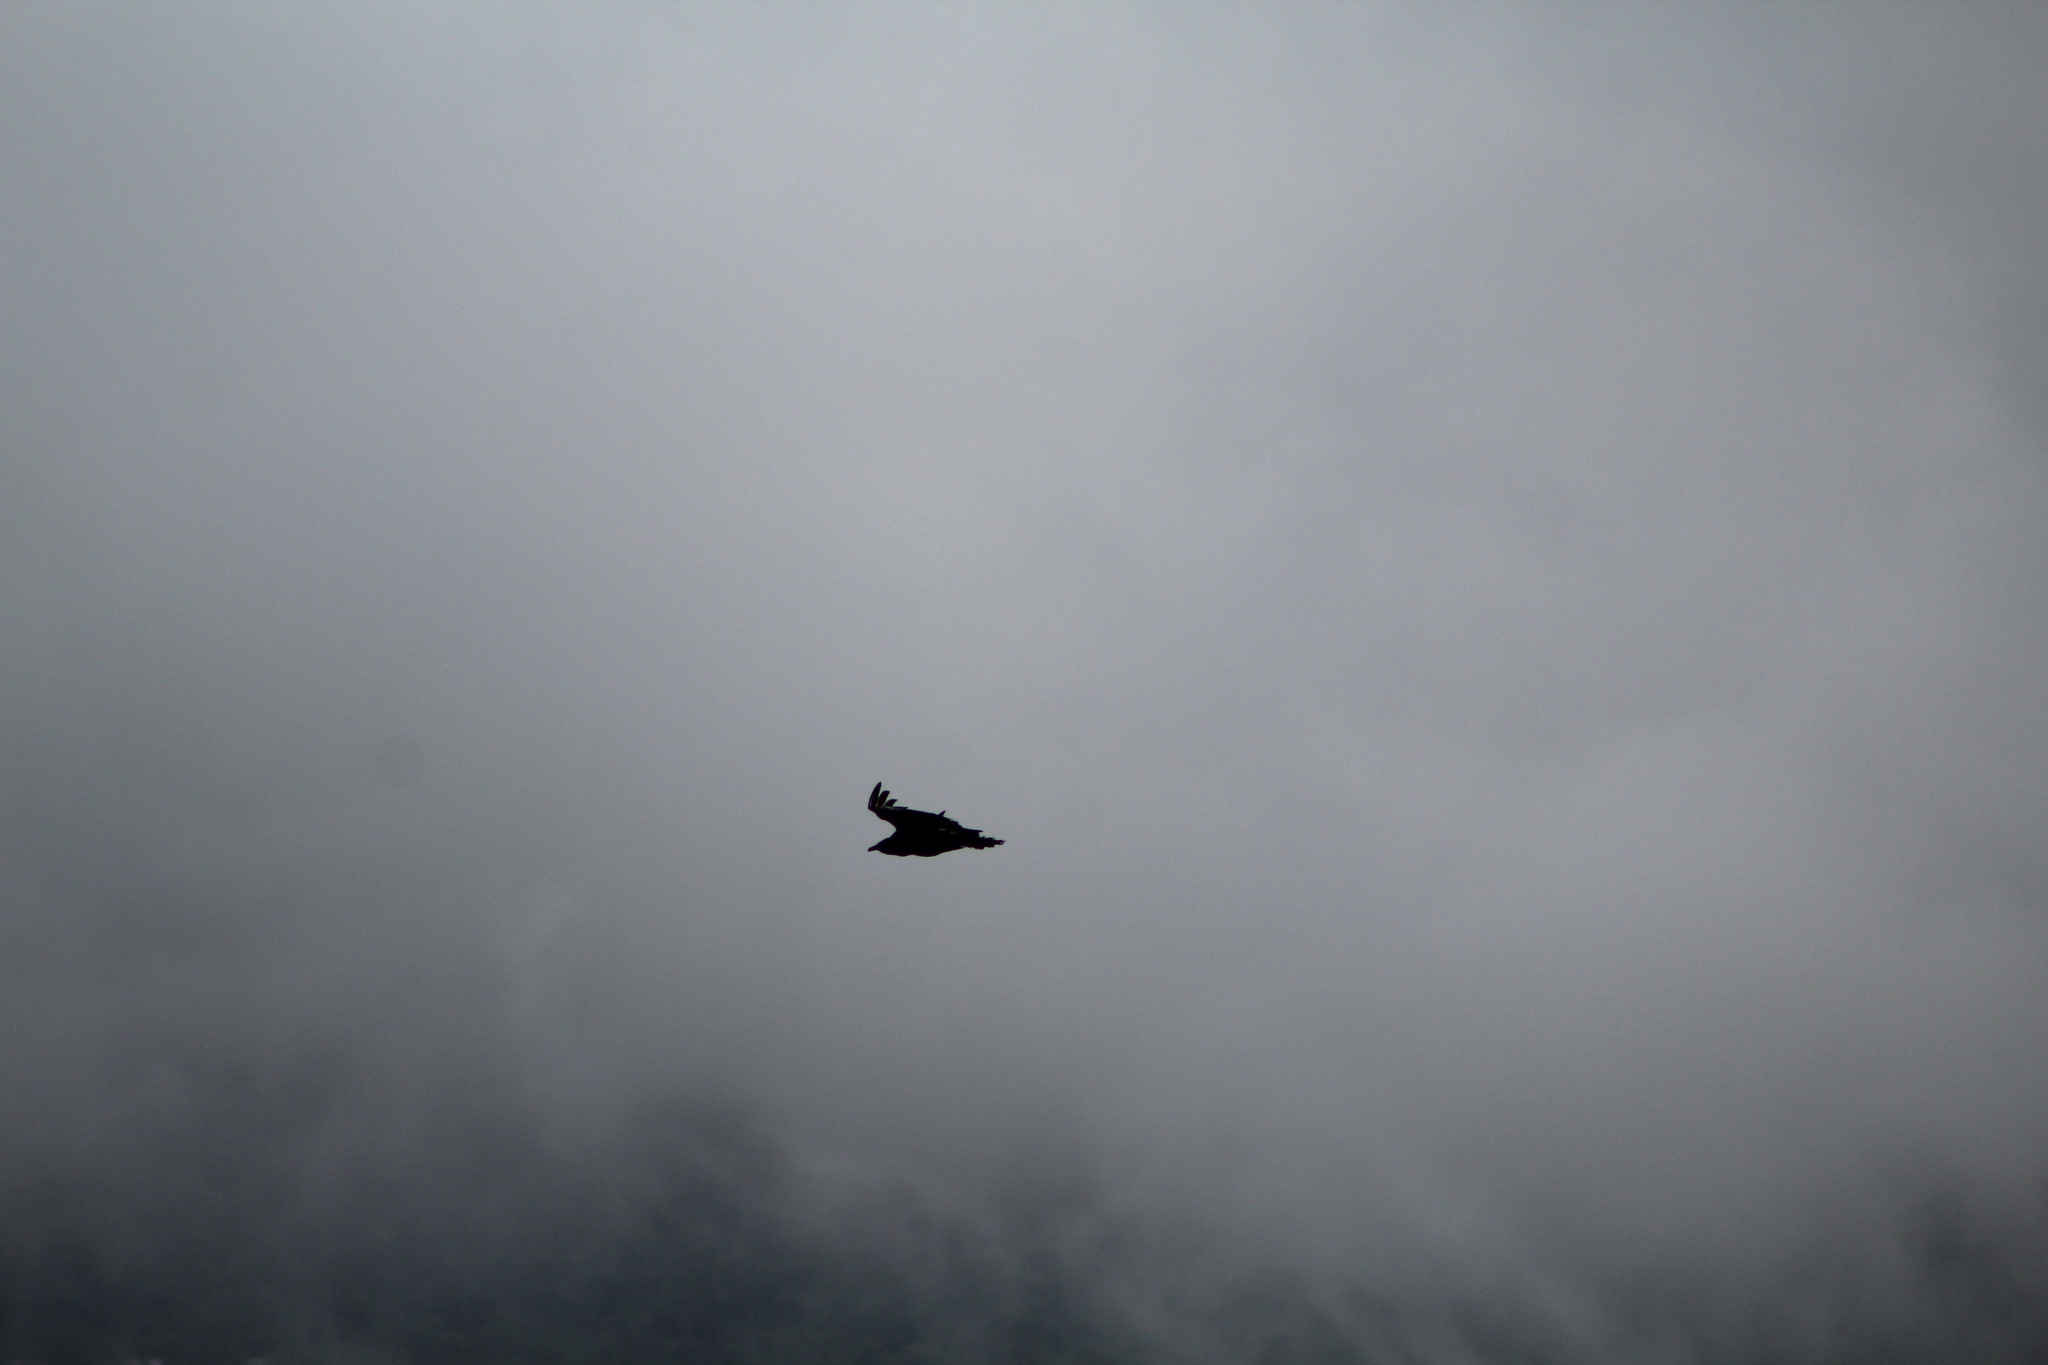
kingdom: Animalia
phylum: Chordata
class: Aves
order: Accipitriformes
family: Cathartidae
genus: Coragyps
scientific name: Coragyps atratus
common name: Black vulture
